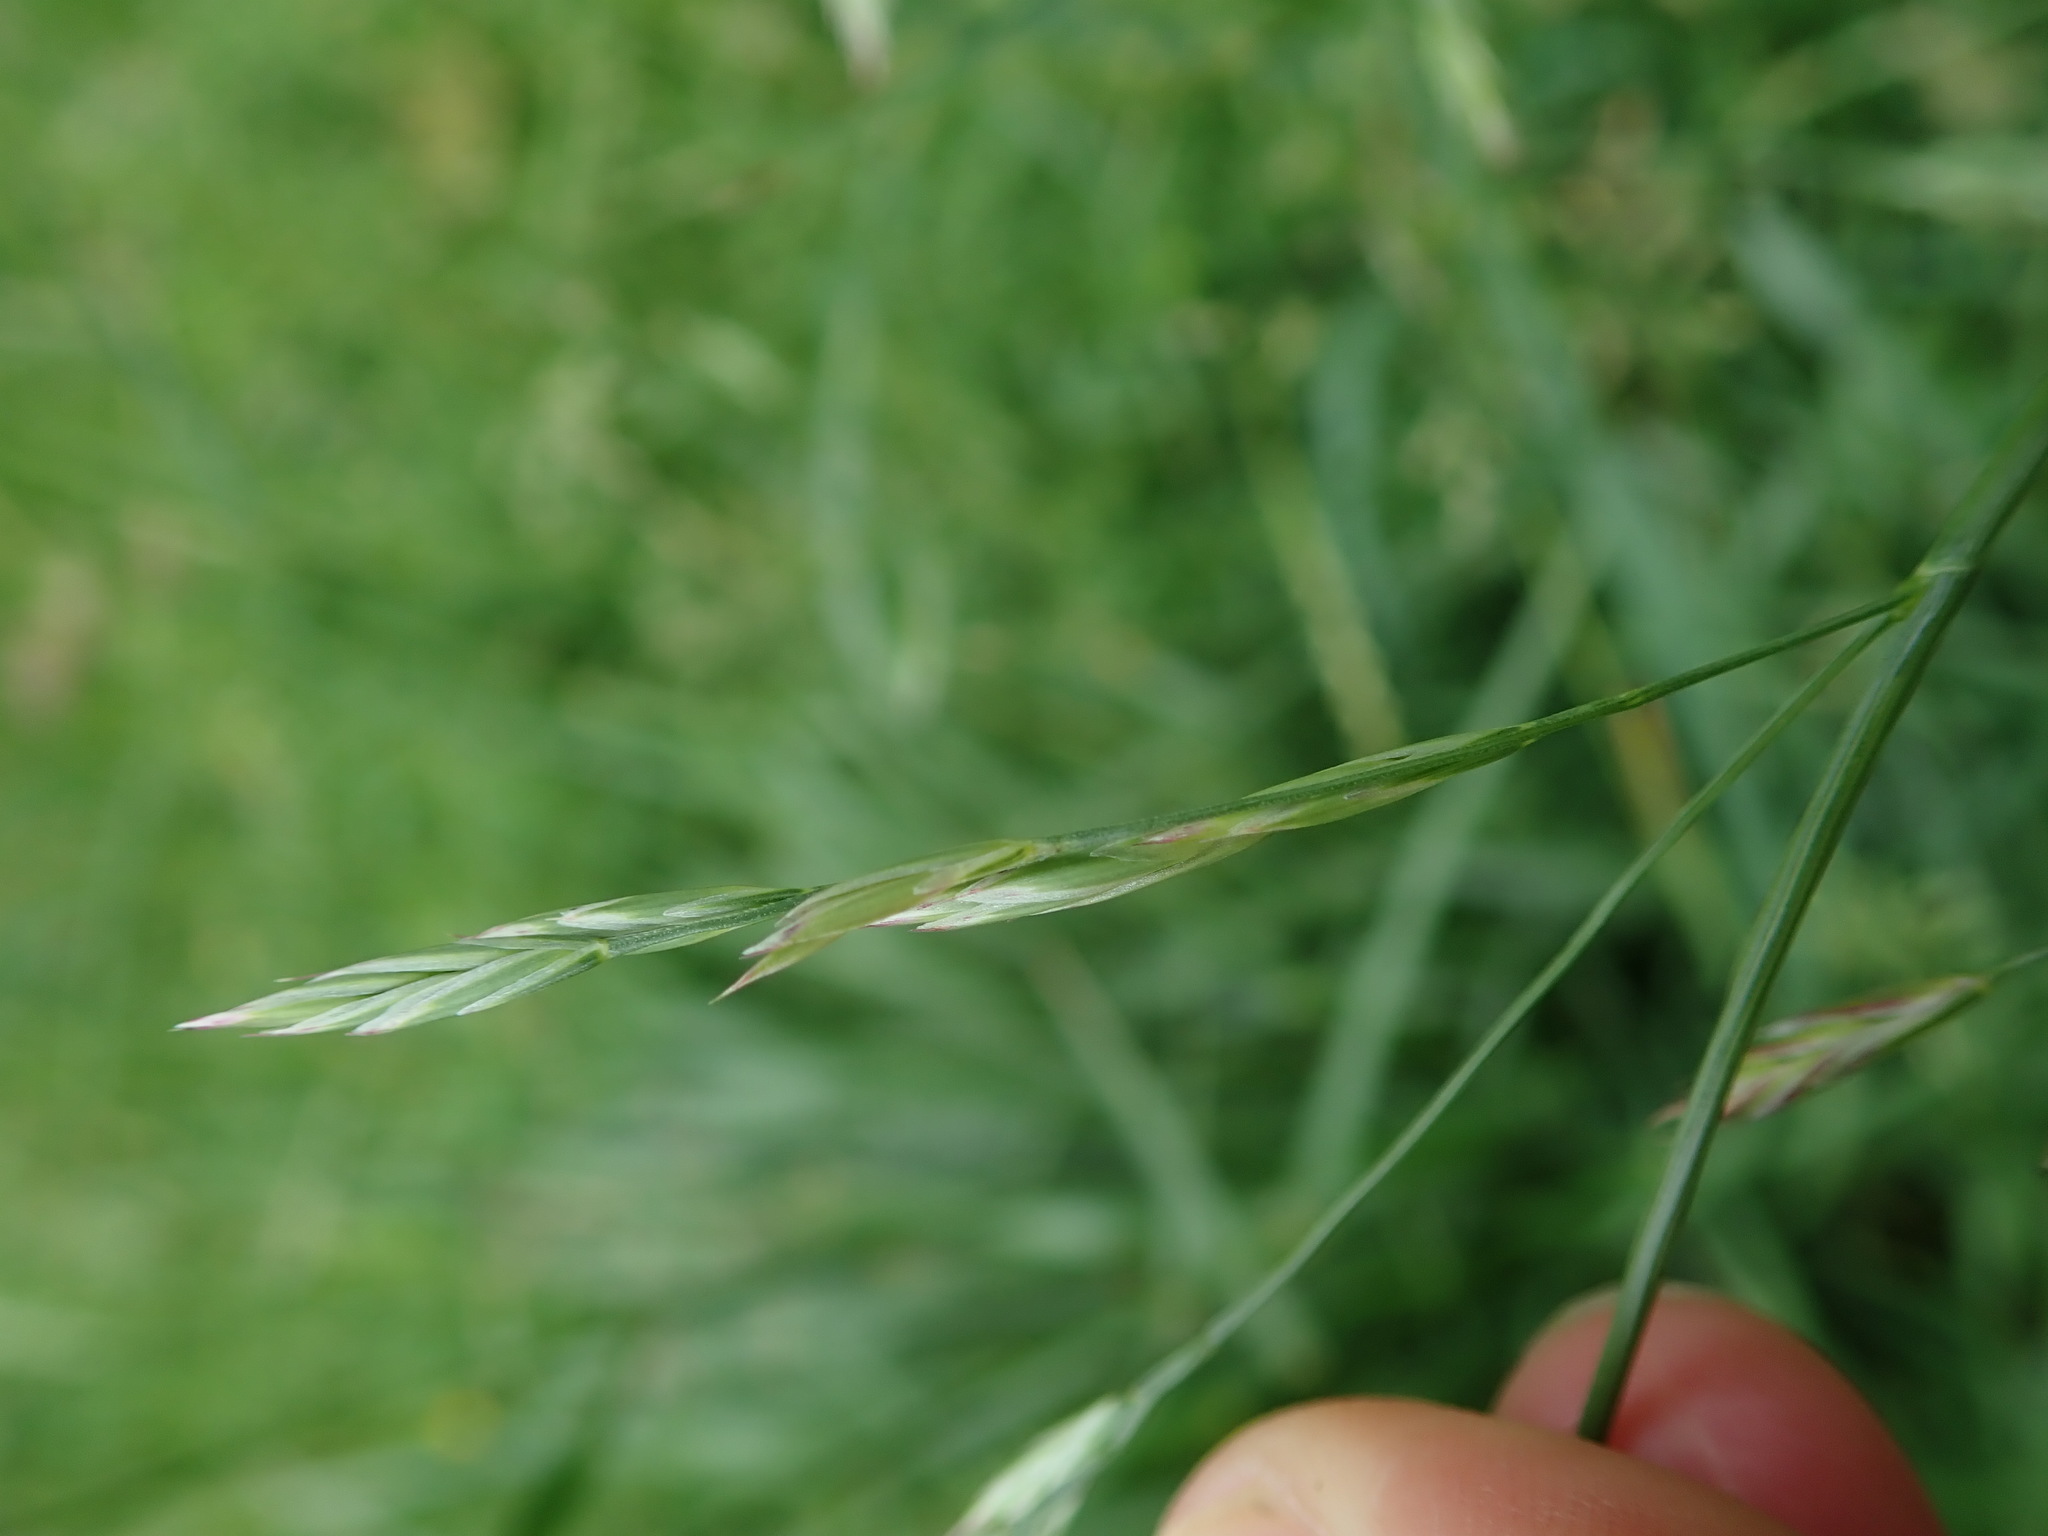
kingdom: Plantae
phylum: Tracheophyta
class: Liliopsida
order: Poales
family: Poaceae
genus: Lolium
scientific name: Lolium arundinaceum
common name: Reed fescue
